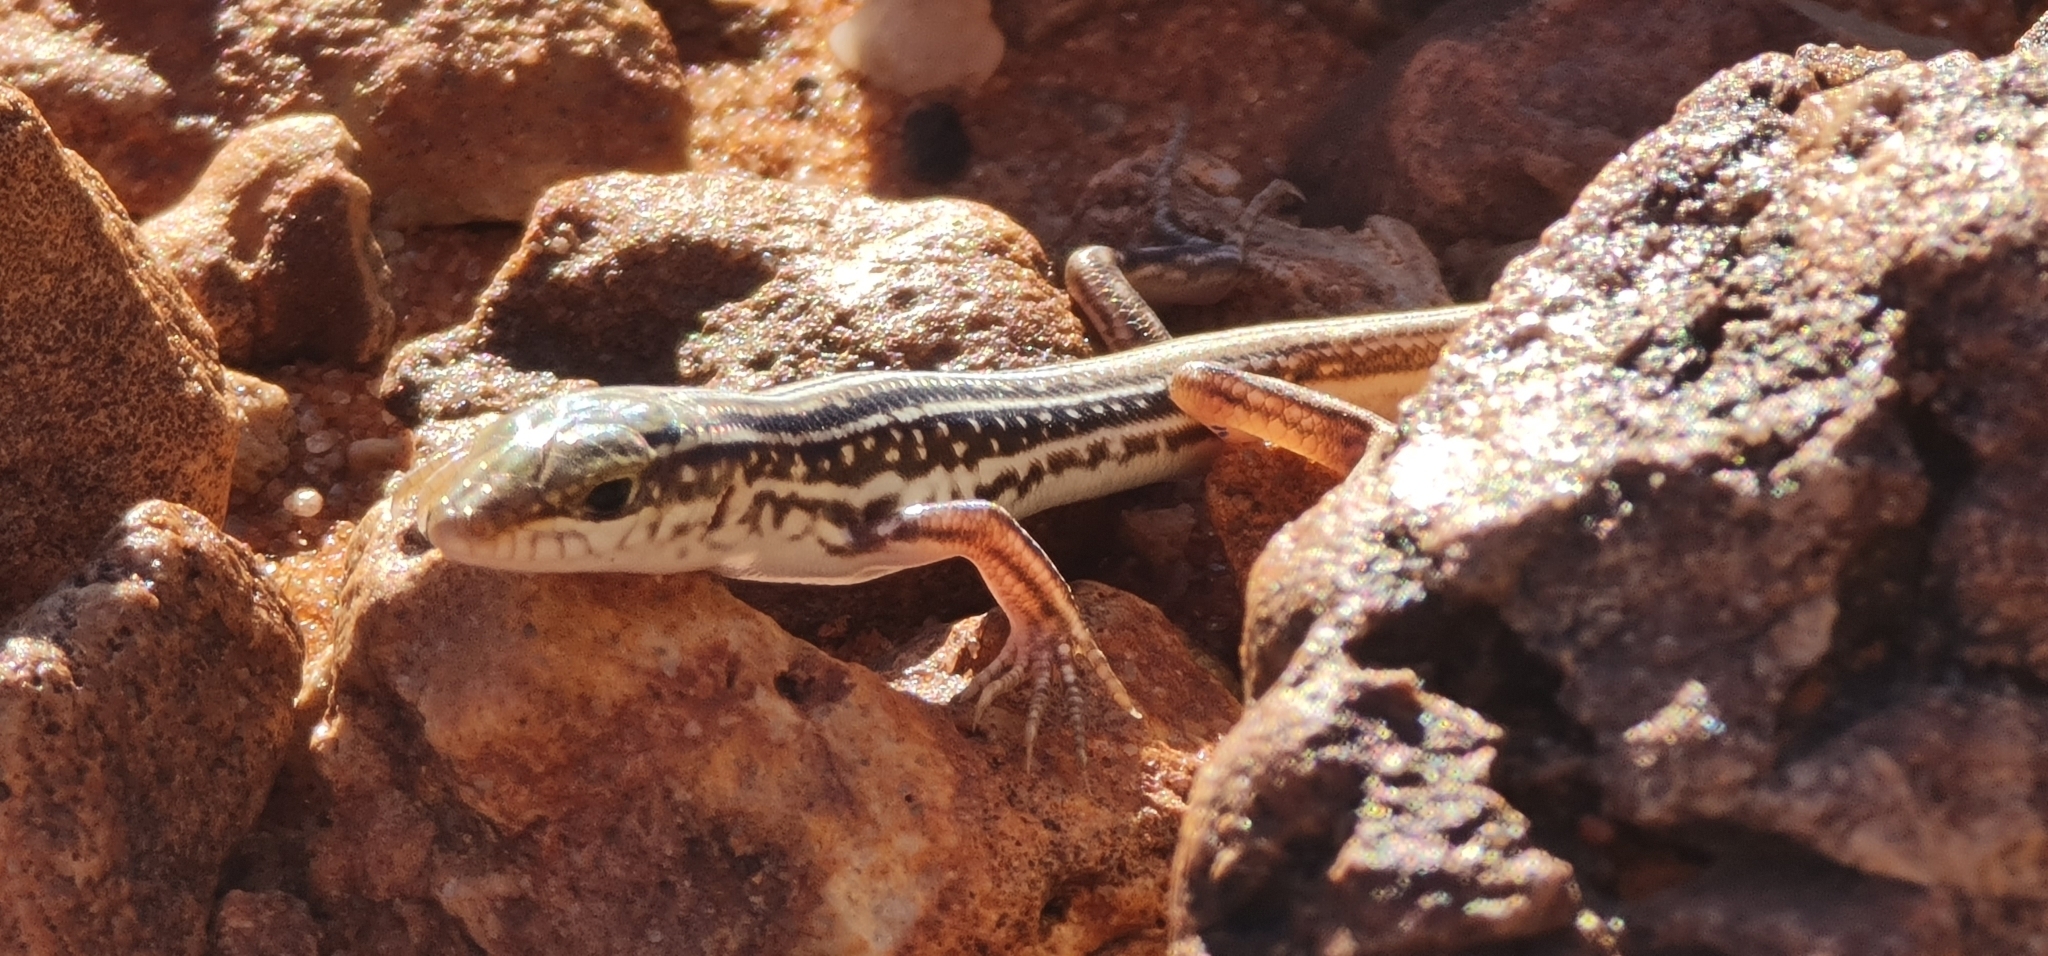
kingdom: Animalia
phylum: Chordata
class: Squamata
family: Scincidae
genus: Ctenotus
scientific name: Ctenotus regius
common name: Pale-rumped ctenotus
